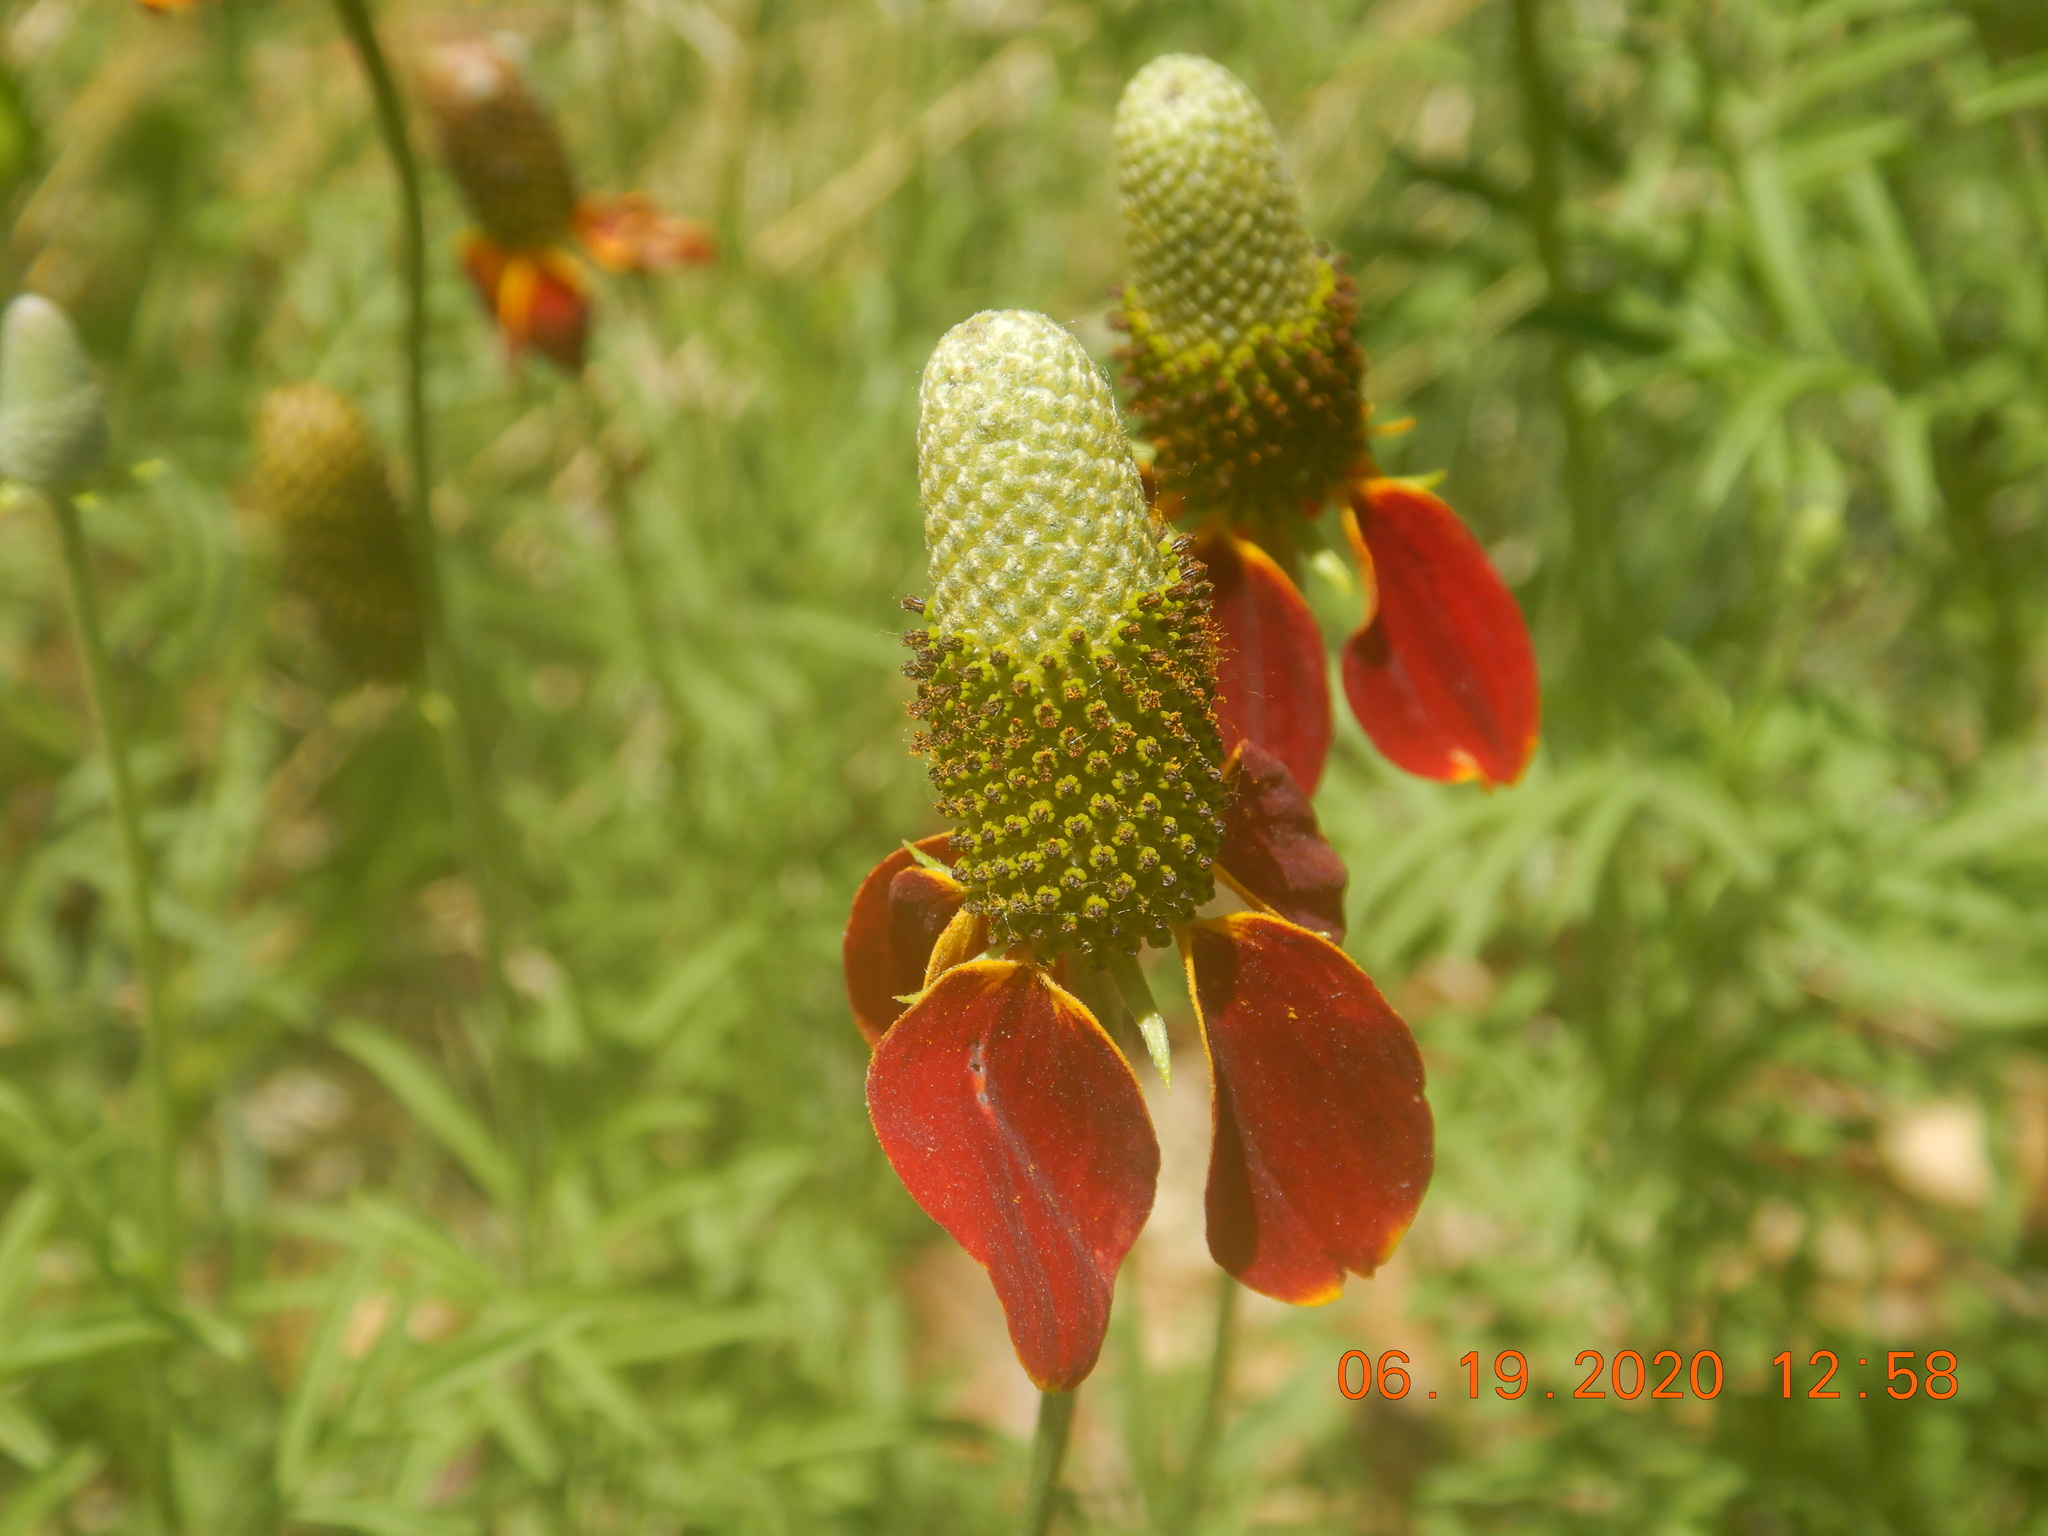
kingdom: Plantae
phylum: Tracheophyta
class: Magnoliopsida
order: Asterales
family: Asteraceae
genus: Ratibida
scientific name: Ratibida columnifera
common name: Prairie coneflower
